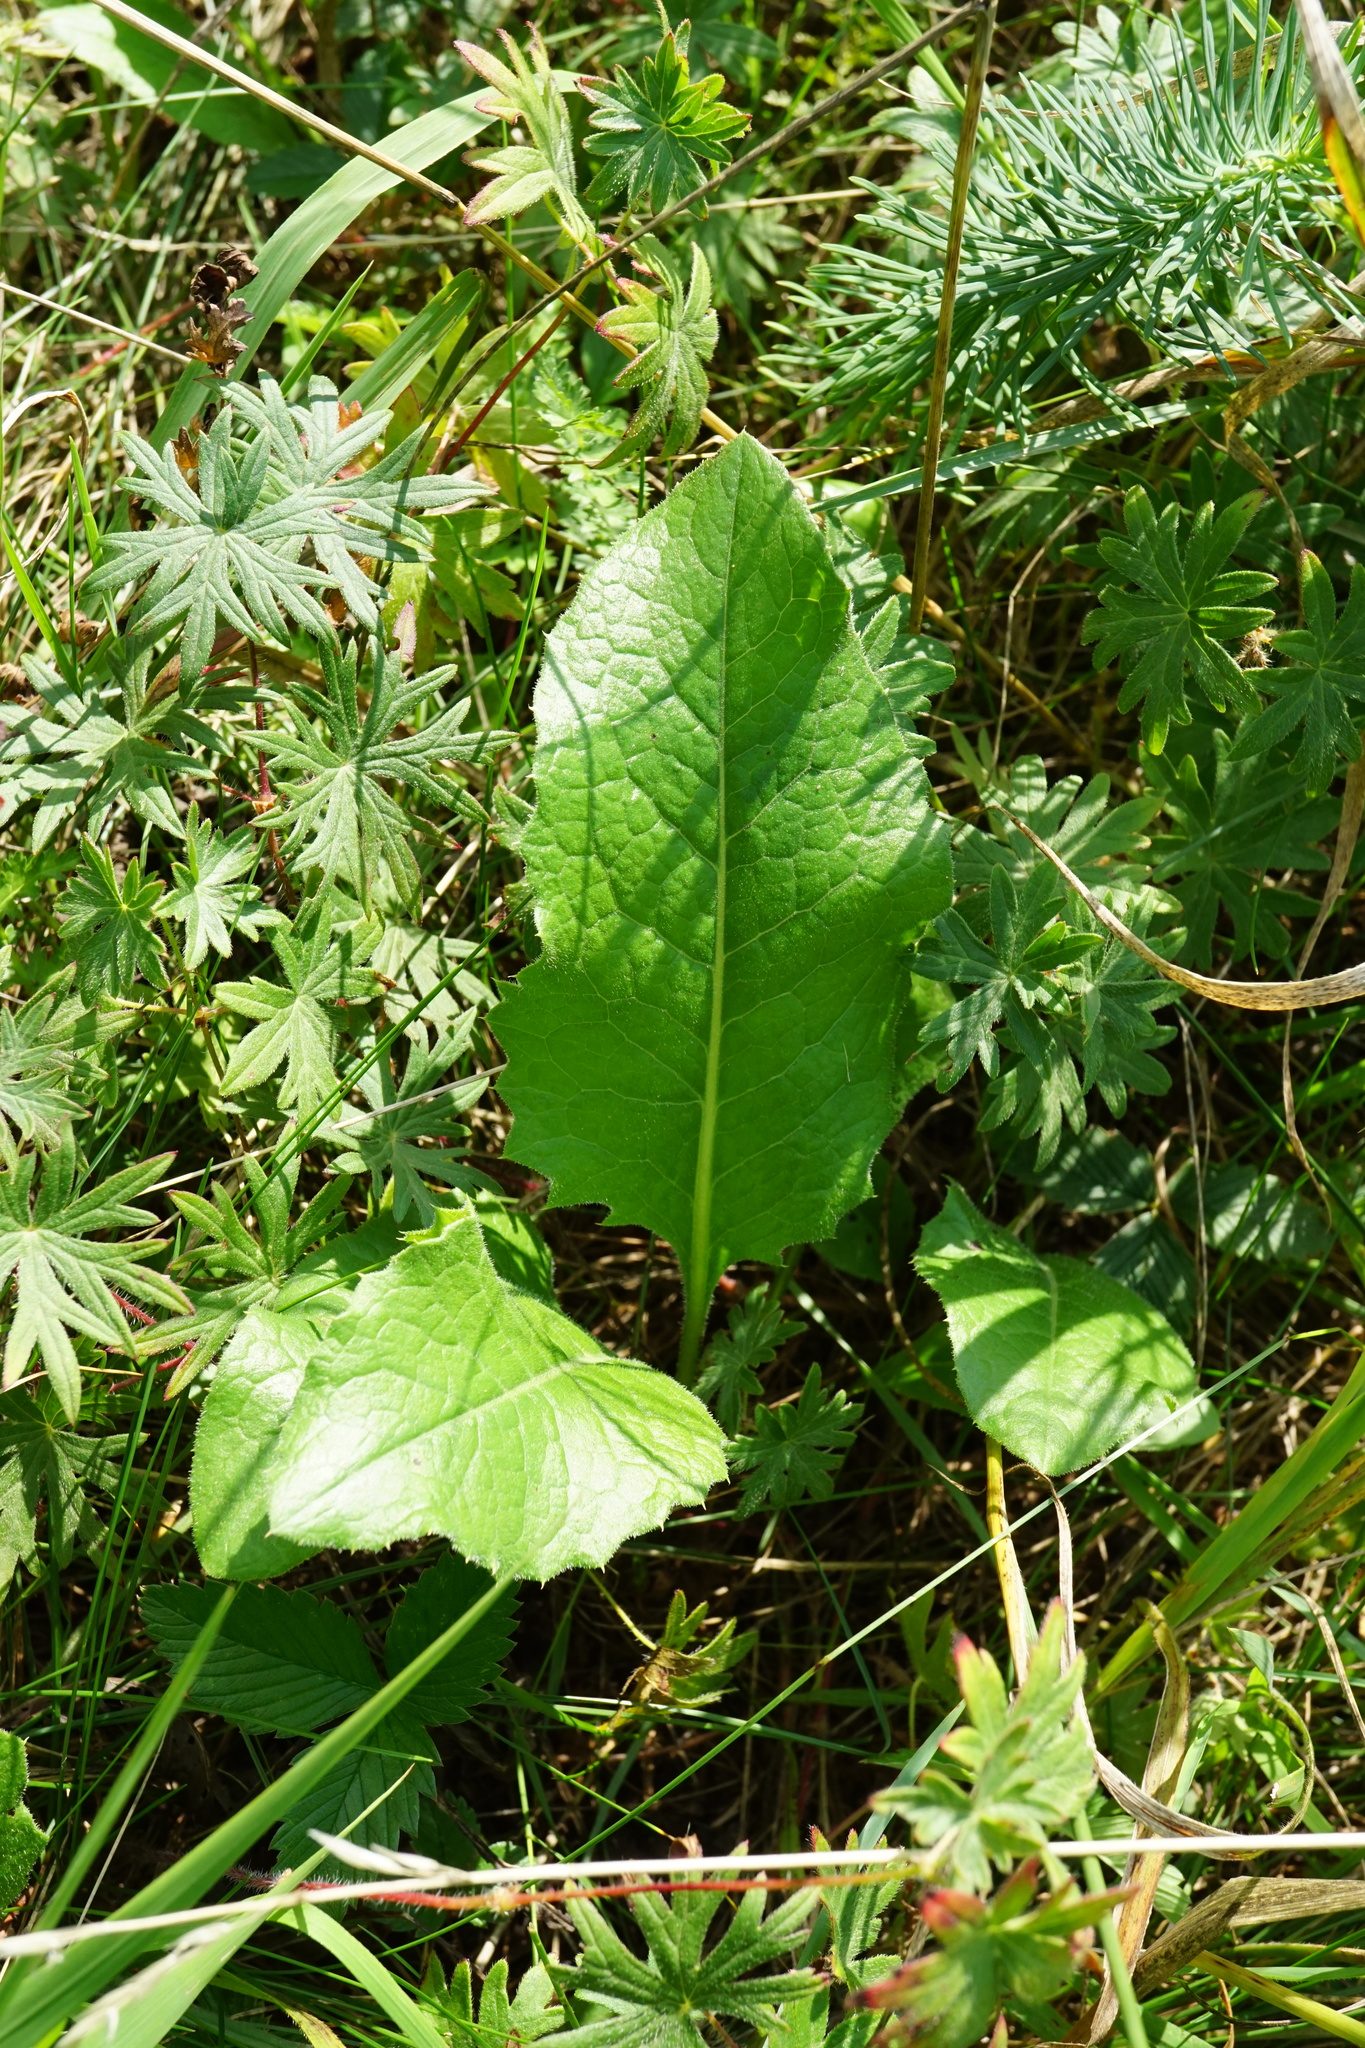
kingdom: Plantae
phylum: Tracheophyta
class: Magnoliopsida
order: Asterales
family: Asteraceae
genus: Klasea
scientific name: Klasea lycopifolia
